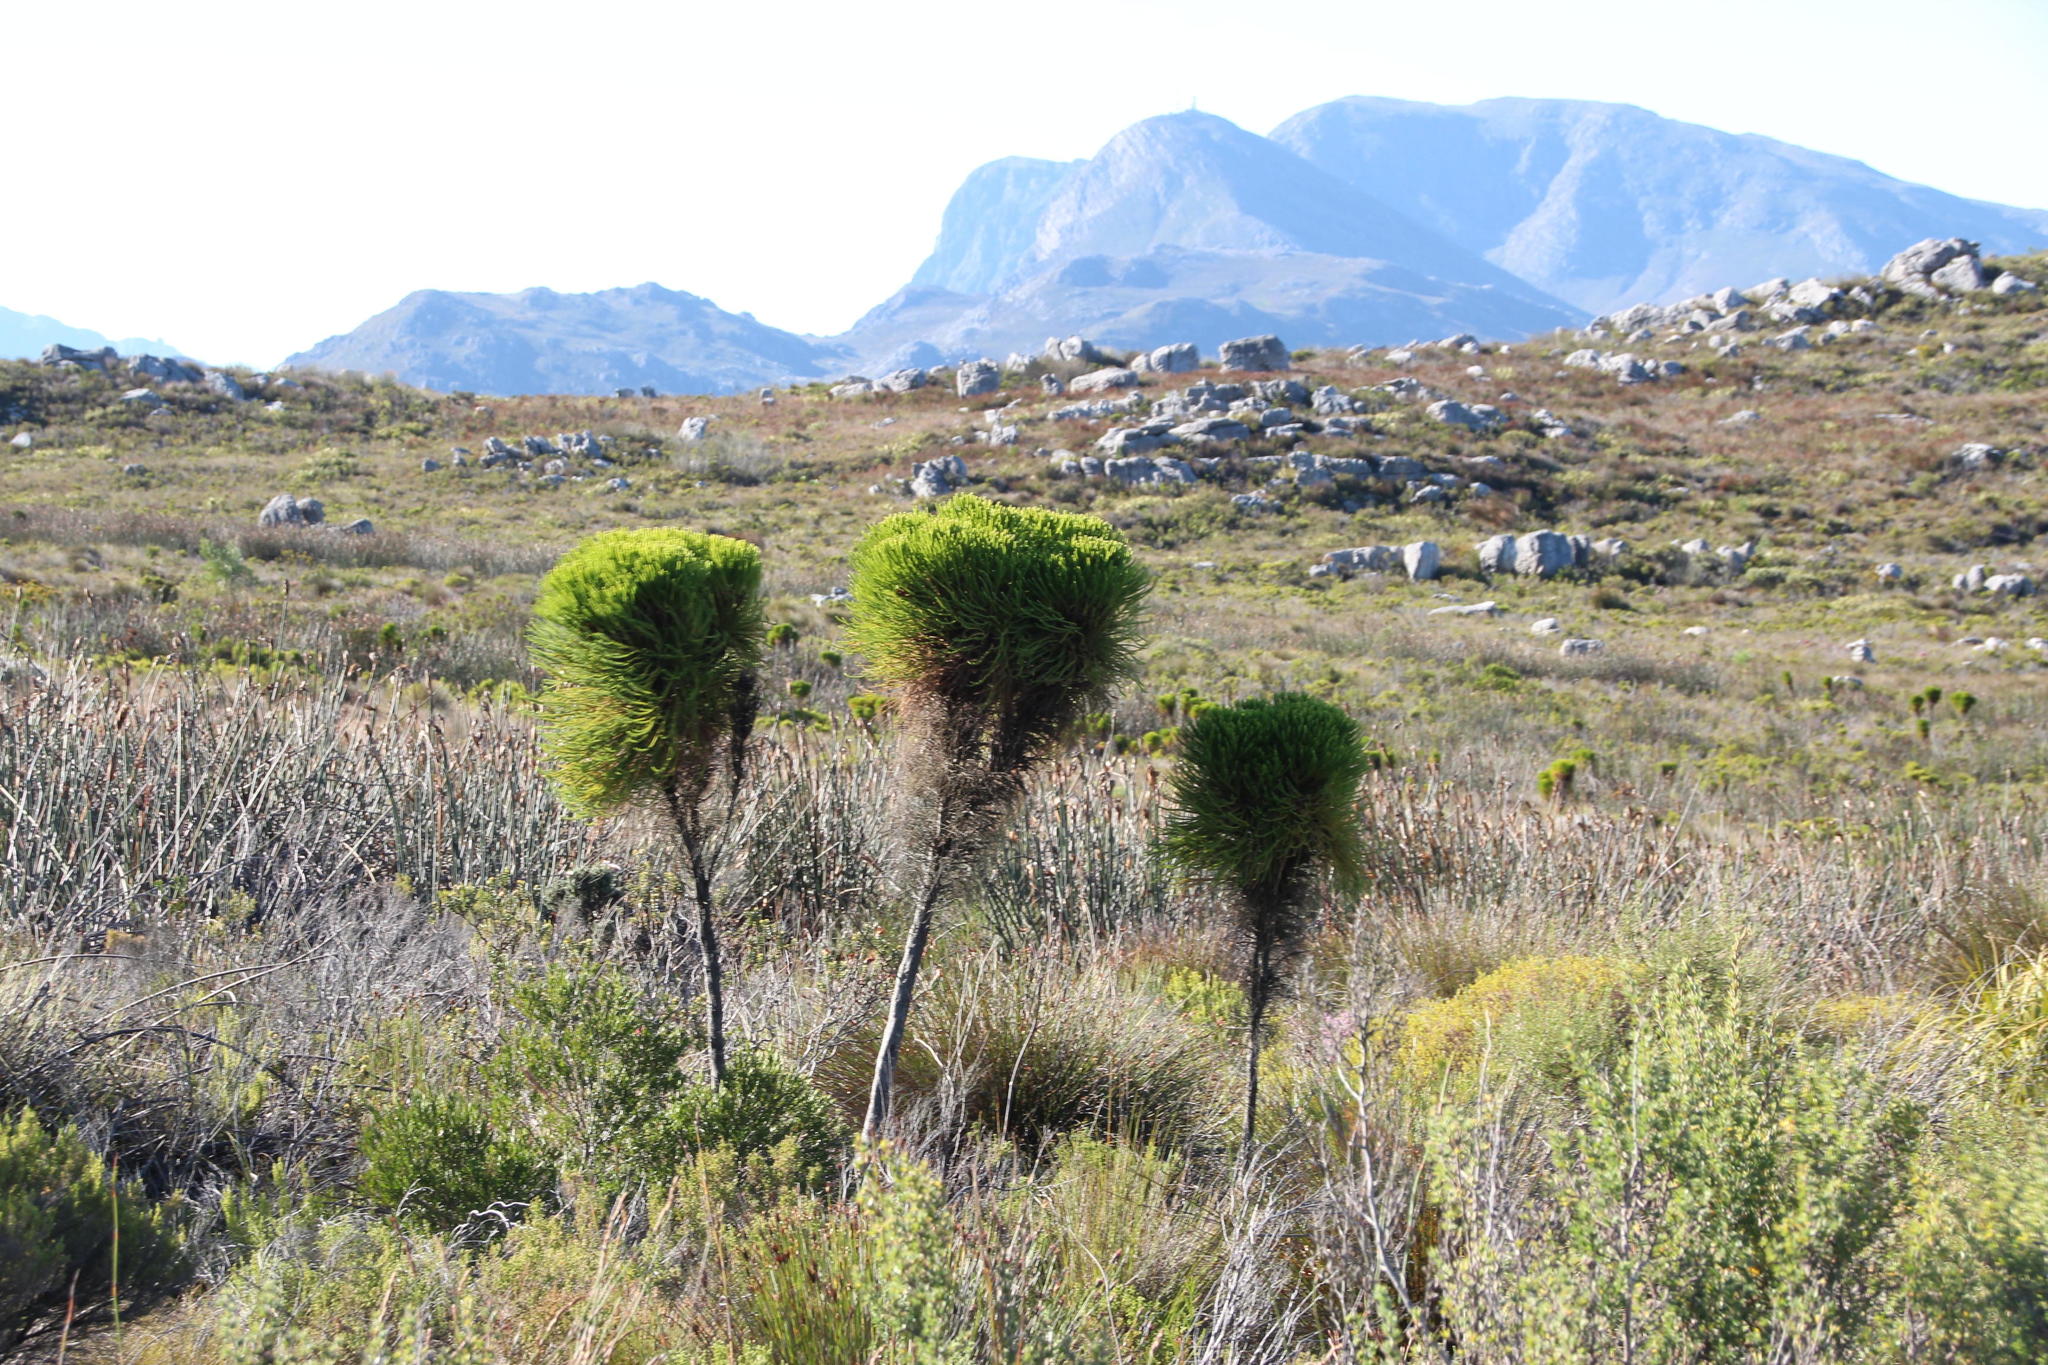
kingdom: Plantae
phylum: Tracheophyta
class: Magnoliopsida
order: Bruniales
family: Bruniaceae
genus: Berzelia
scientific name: Berzelia alopecurioides
